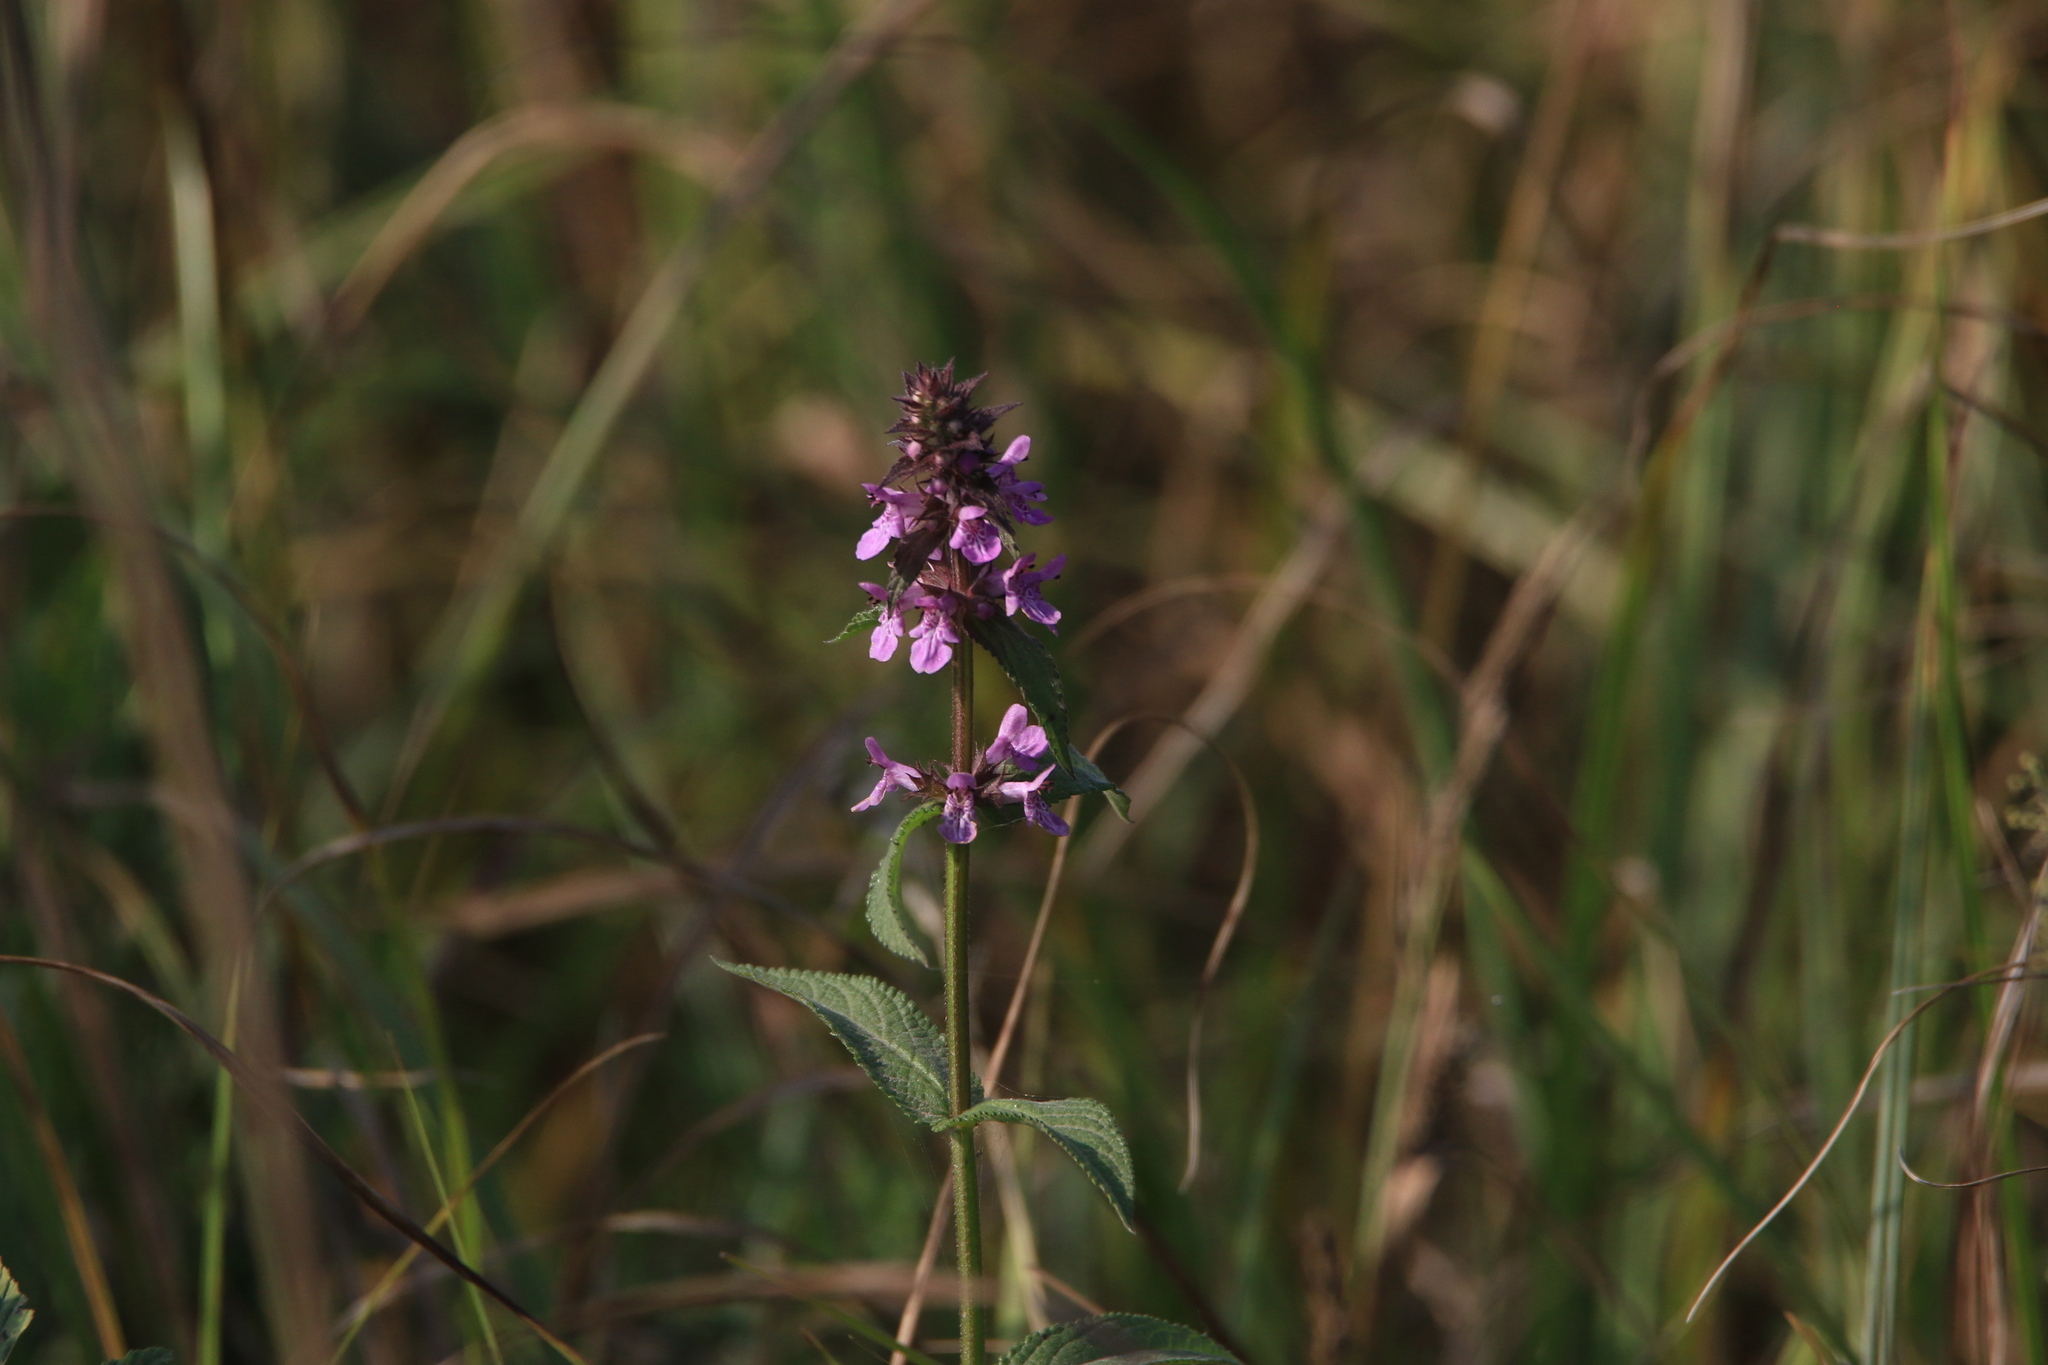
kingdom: Plantae
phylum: Tracheophyta
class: Magnoliopsida
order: Lamiales
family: Lamiaceae
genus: Stachys
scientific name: Stachys palustris
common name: Marsh woundwort
